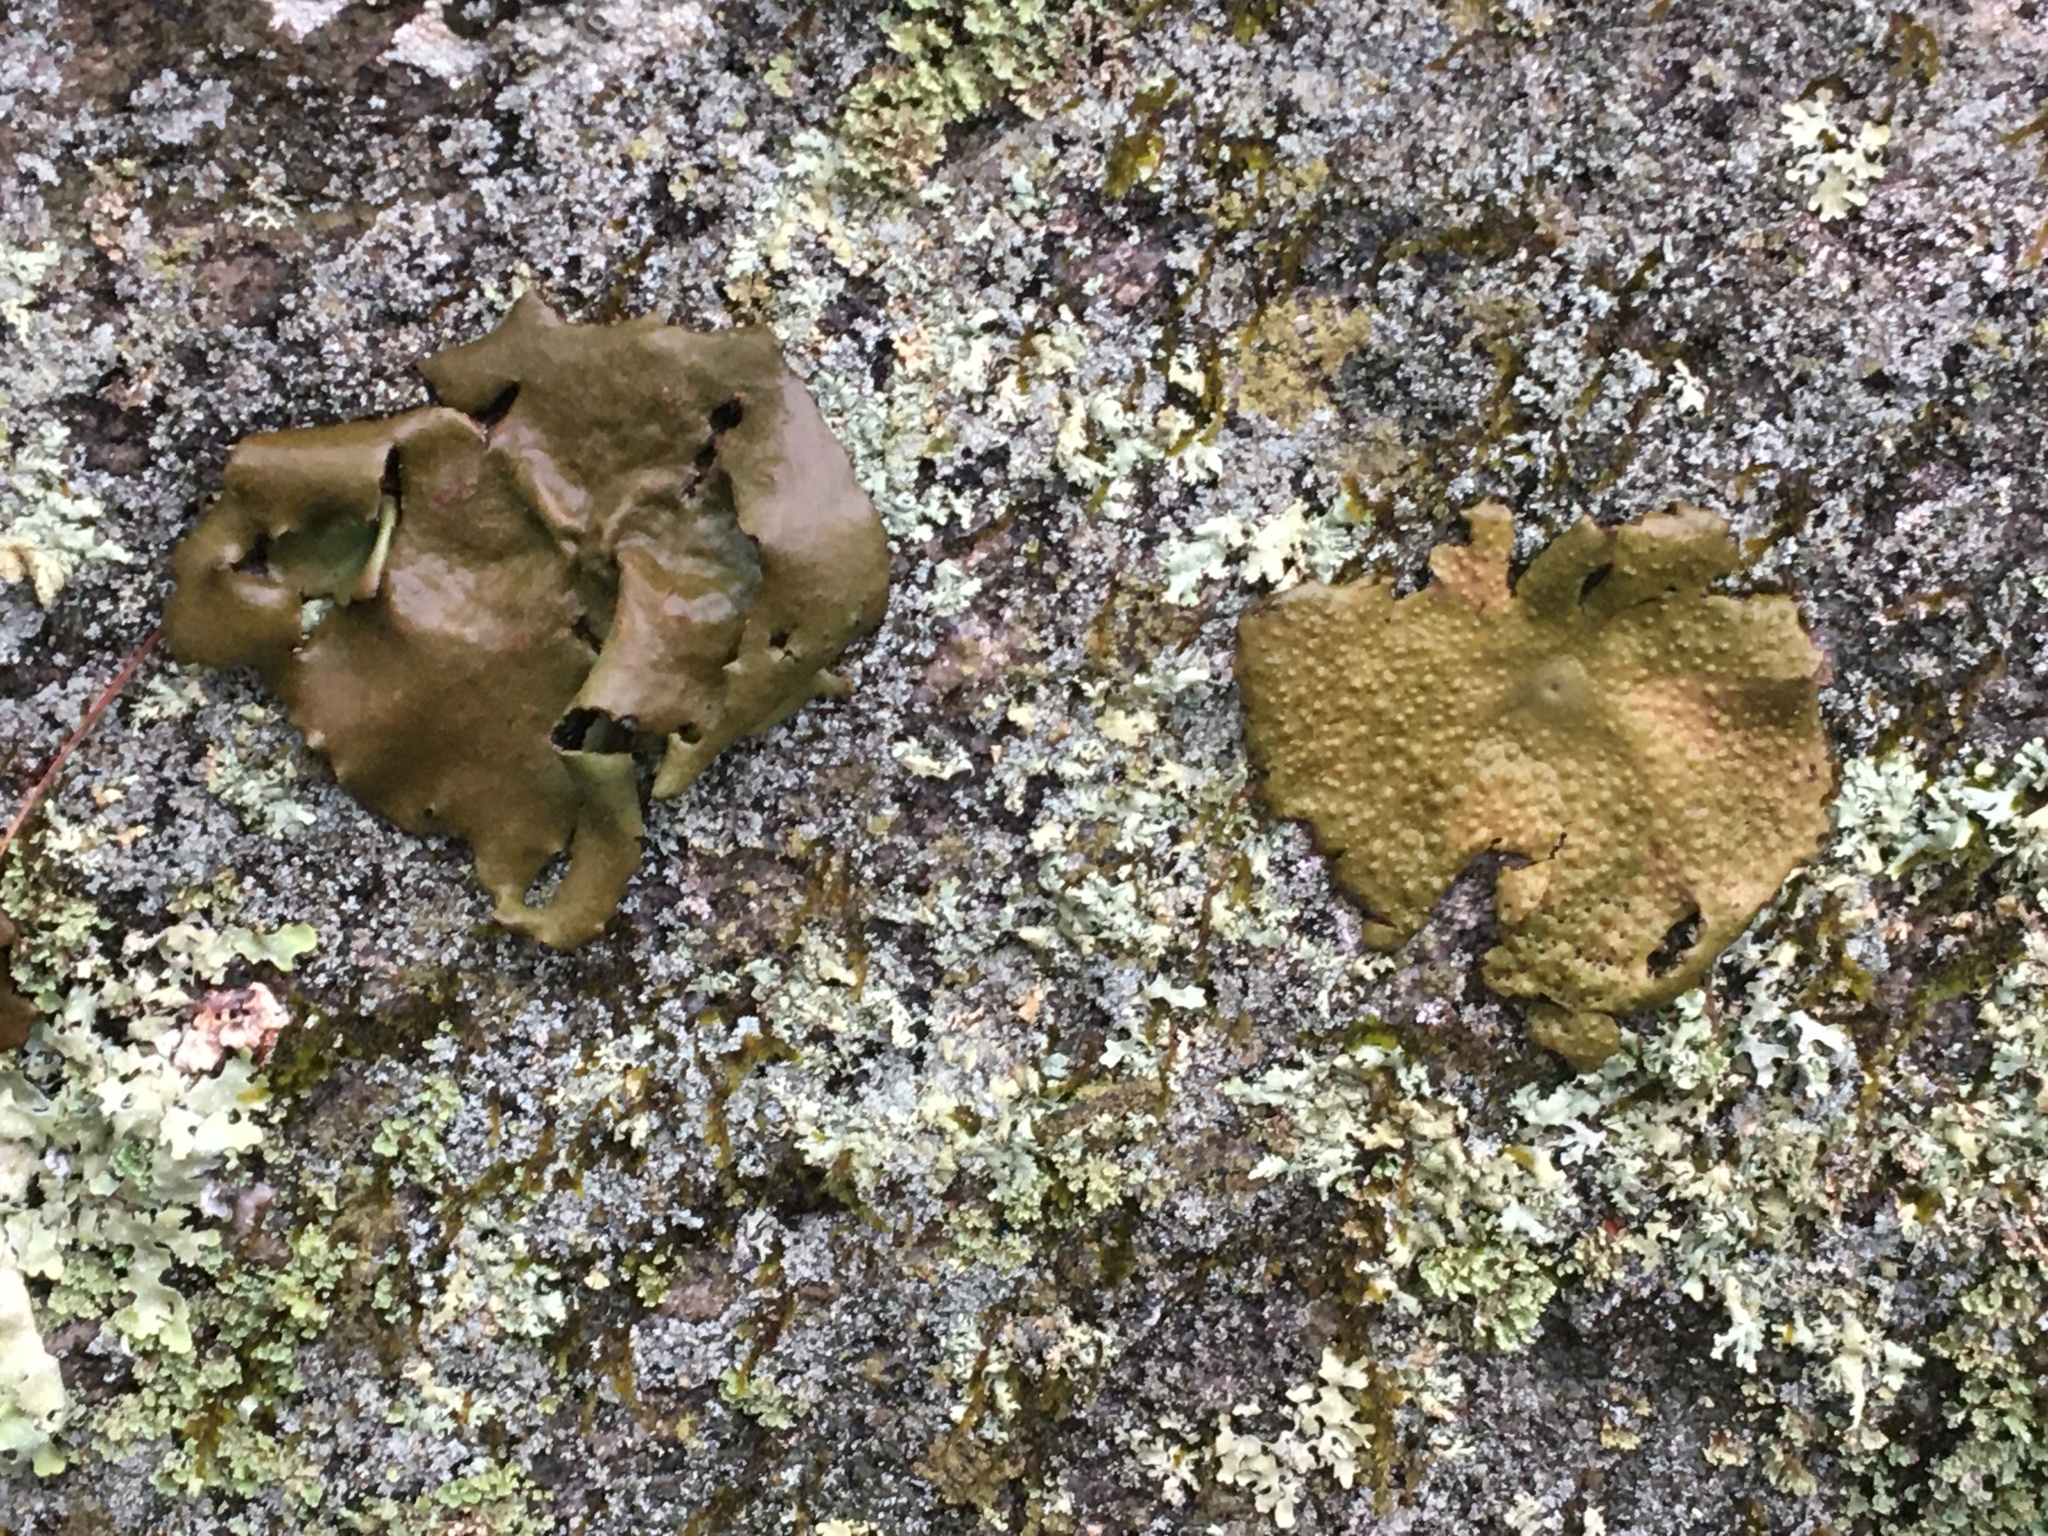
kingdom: Fungi
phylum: Ascomycota
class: Lecanoromycetes
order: Umbilicariales
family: Umbilicariaceae
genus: Lasallia
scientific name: Lasallia pensylvanica
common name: Blackened toadskin lichen
